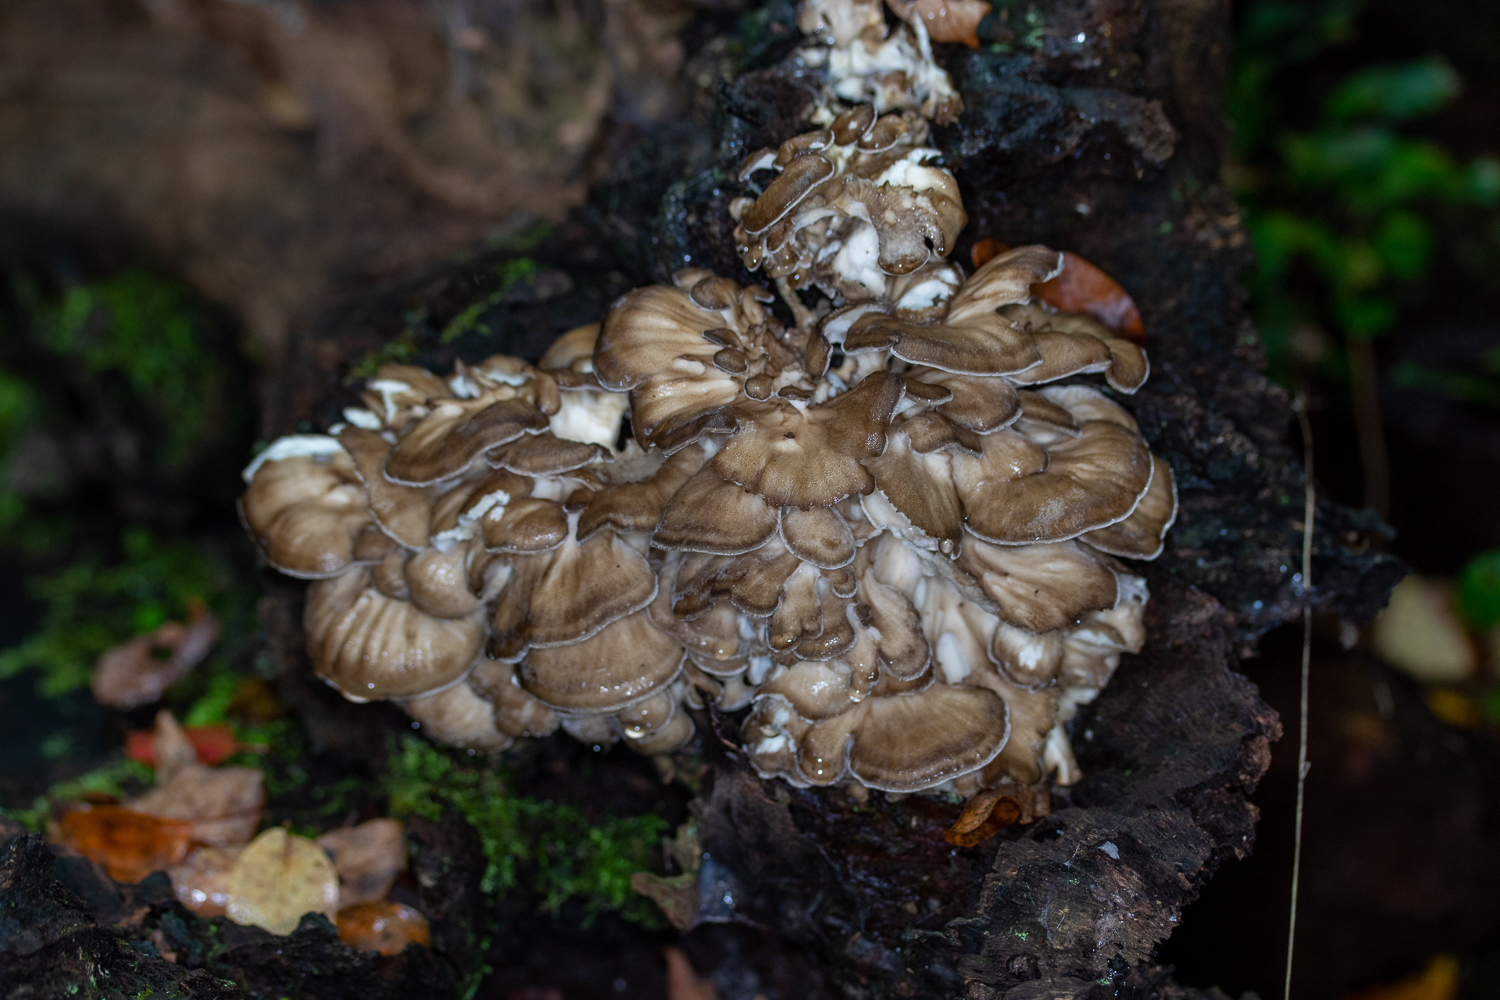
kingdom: Fungi
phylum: Basidiomycota
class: Agaricomycetes
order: Polyporales
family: Grifolaceae
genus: Grifola
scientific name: Grifola frondosa
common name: Hen of the woods
